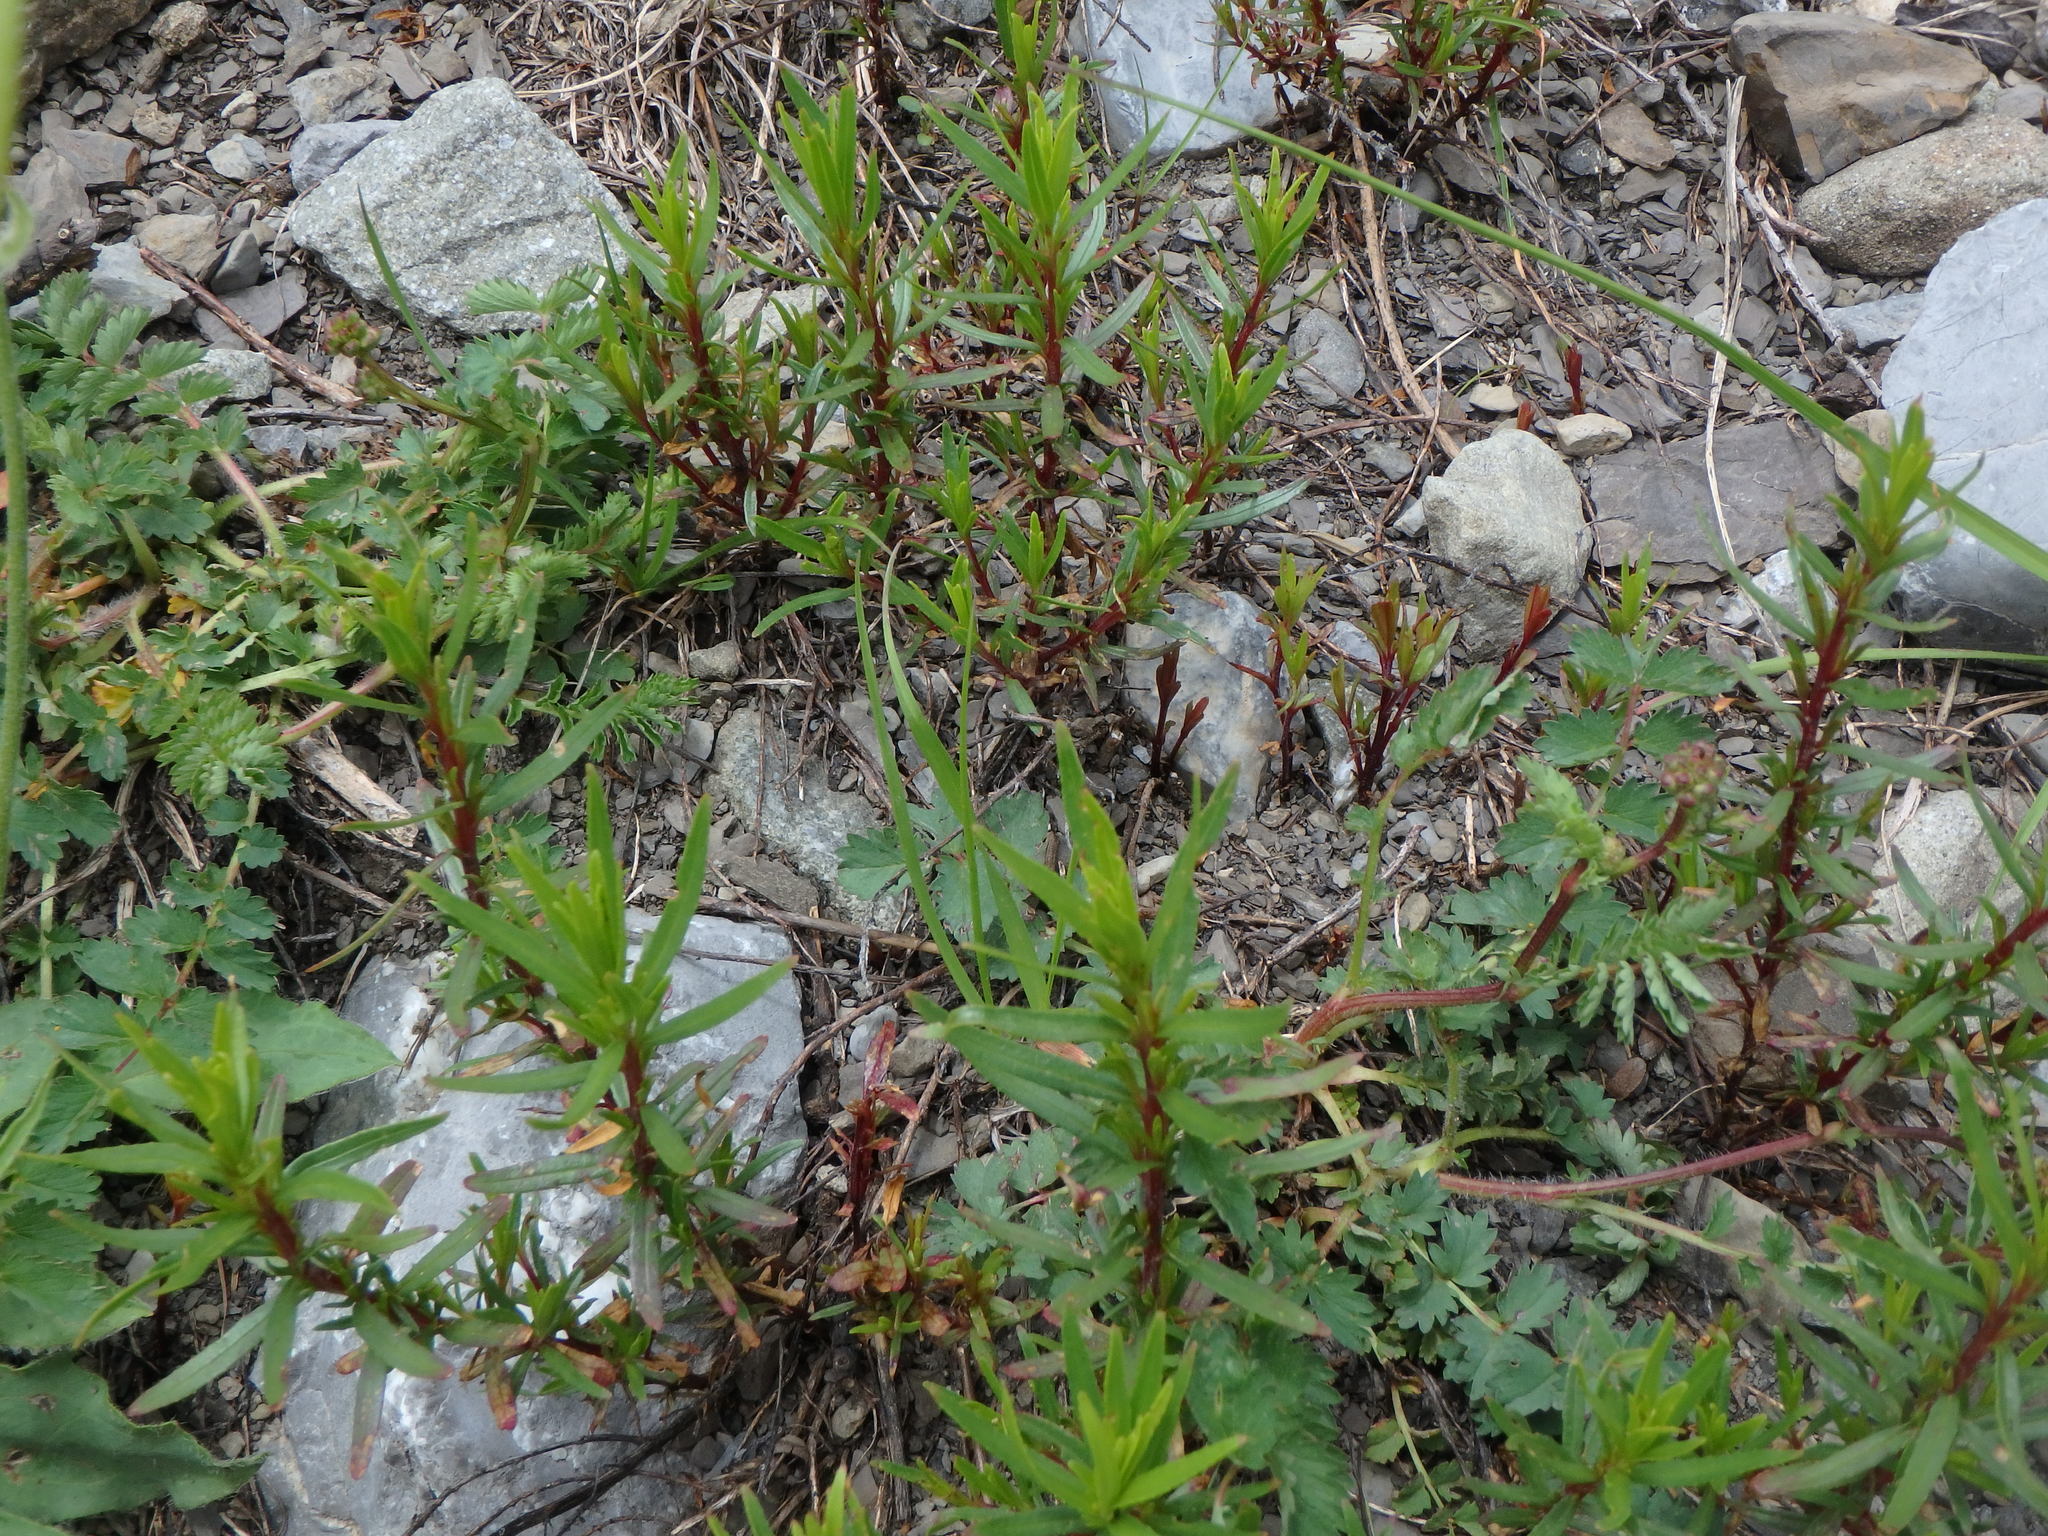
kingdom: Plantae
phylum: Tracheophyta
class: Magnoliopsida
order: Myrtales
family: Onagraceae
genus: Chamaenerion
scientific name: Chamaenerion fleischeri
